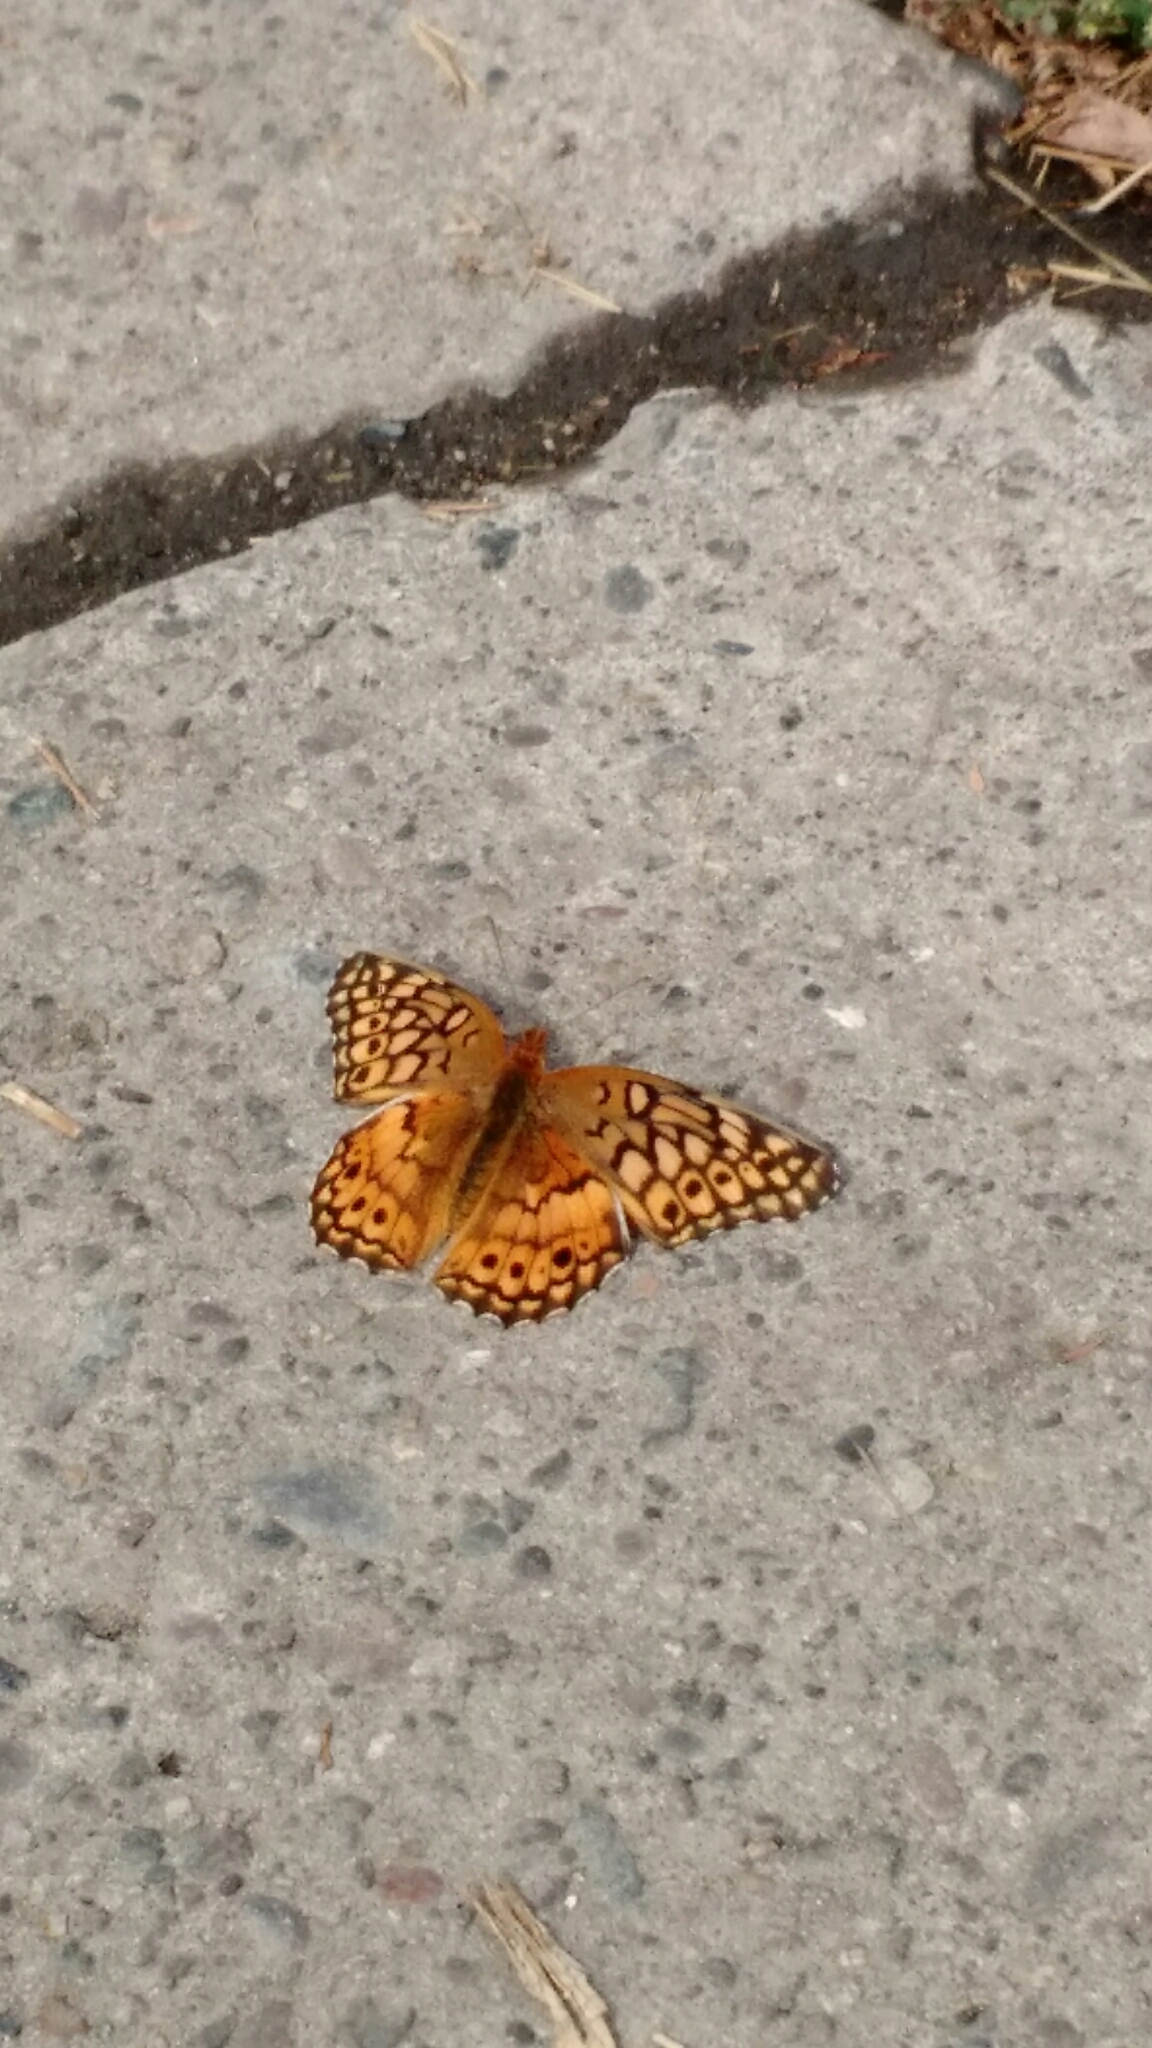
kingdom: Animalia
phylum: Arthropoda
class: Insecta
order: Lepidoptera
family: Nymphalidae
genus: Euptoieta
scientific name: Euptoieta claudia
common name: Variegated fritillary
